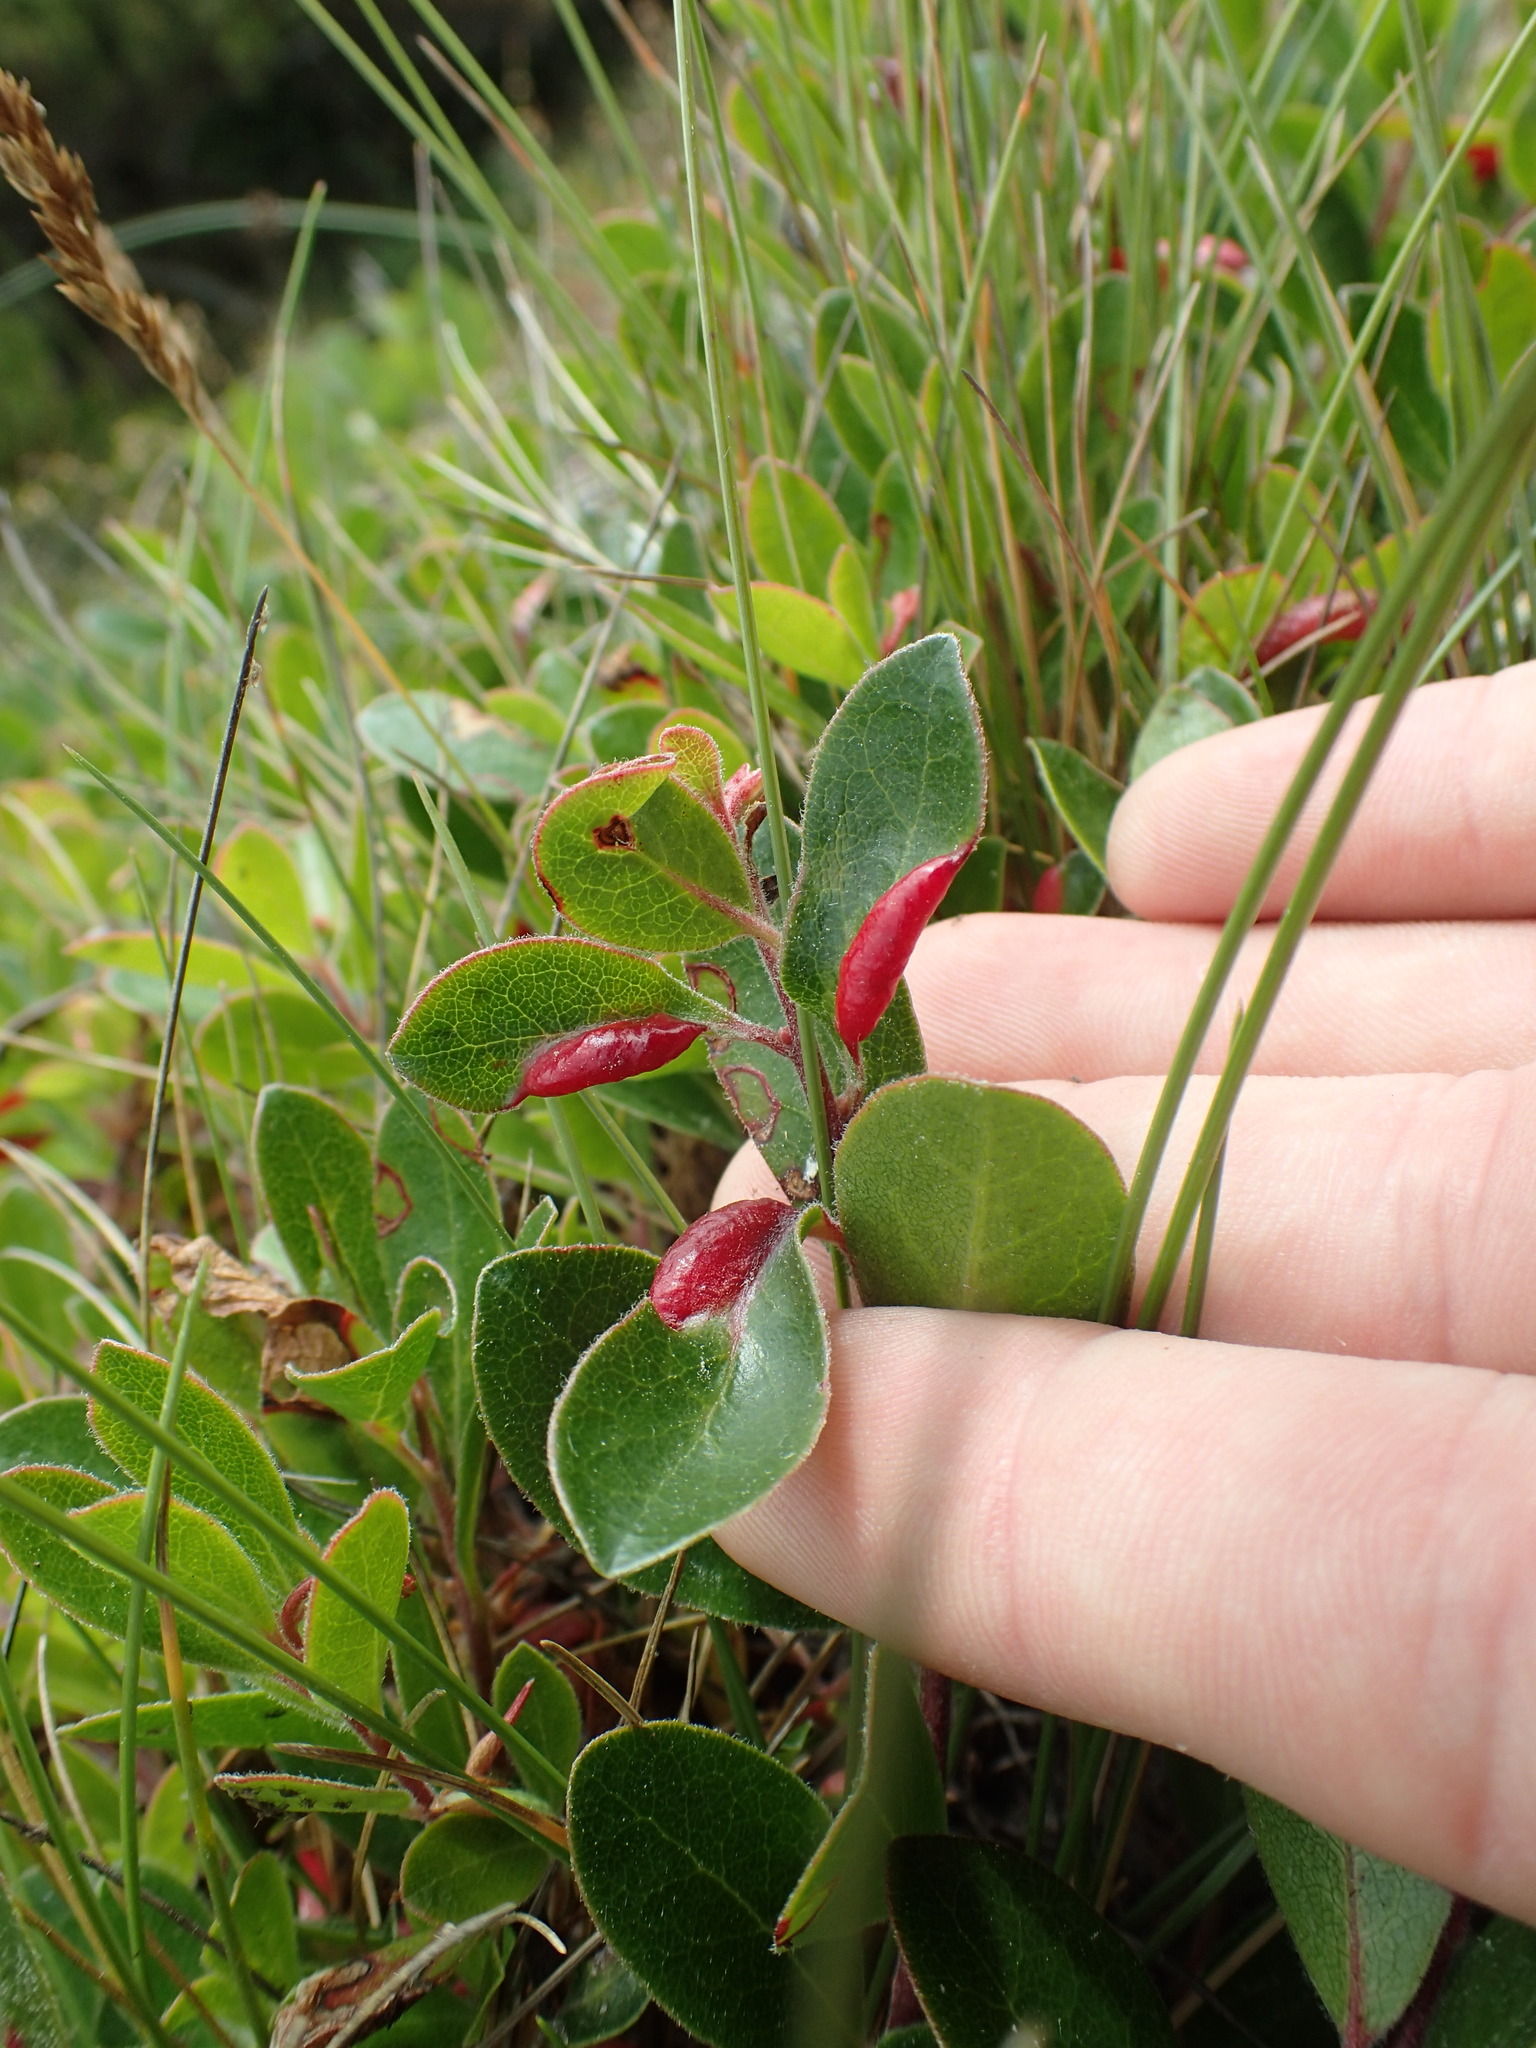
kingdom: Animalia
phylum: Arthropoda
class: Insecta
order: Hemiptera
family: Aphididae
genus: Tamalia
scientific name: Tamalia coweni
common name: Manzanita leafgall aphid
